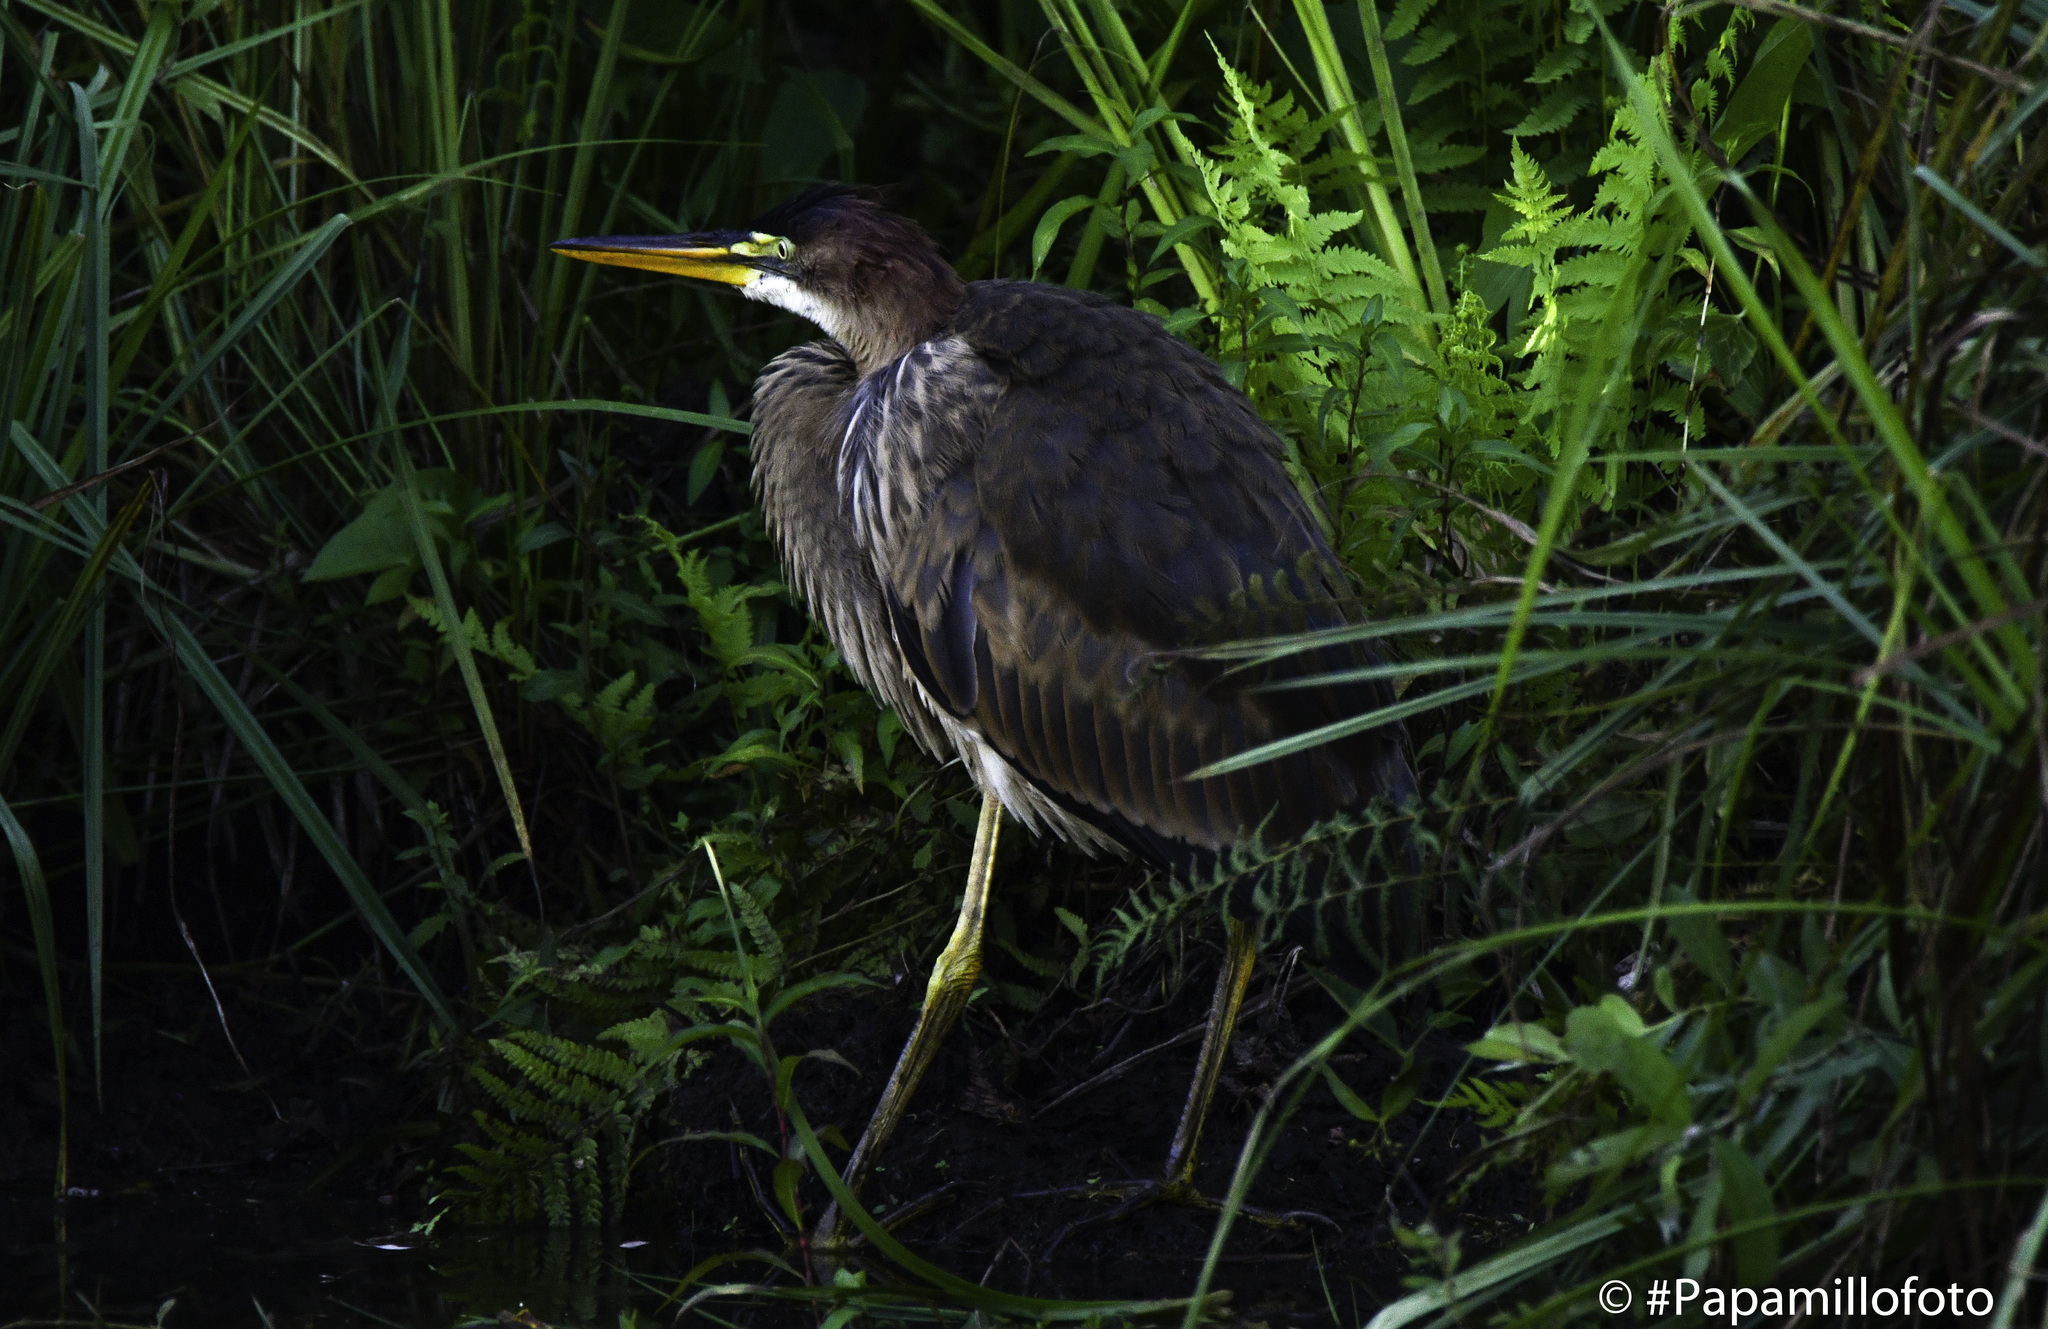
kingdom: Animalia
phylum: Chordata
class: Aves
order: Pelecaniformes
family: Ardeidae
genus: Ardea
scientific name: Ardea purpurea
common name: Purple heron
